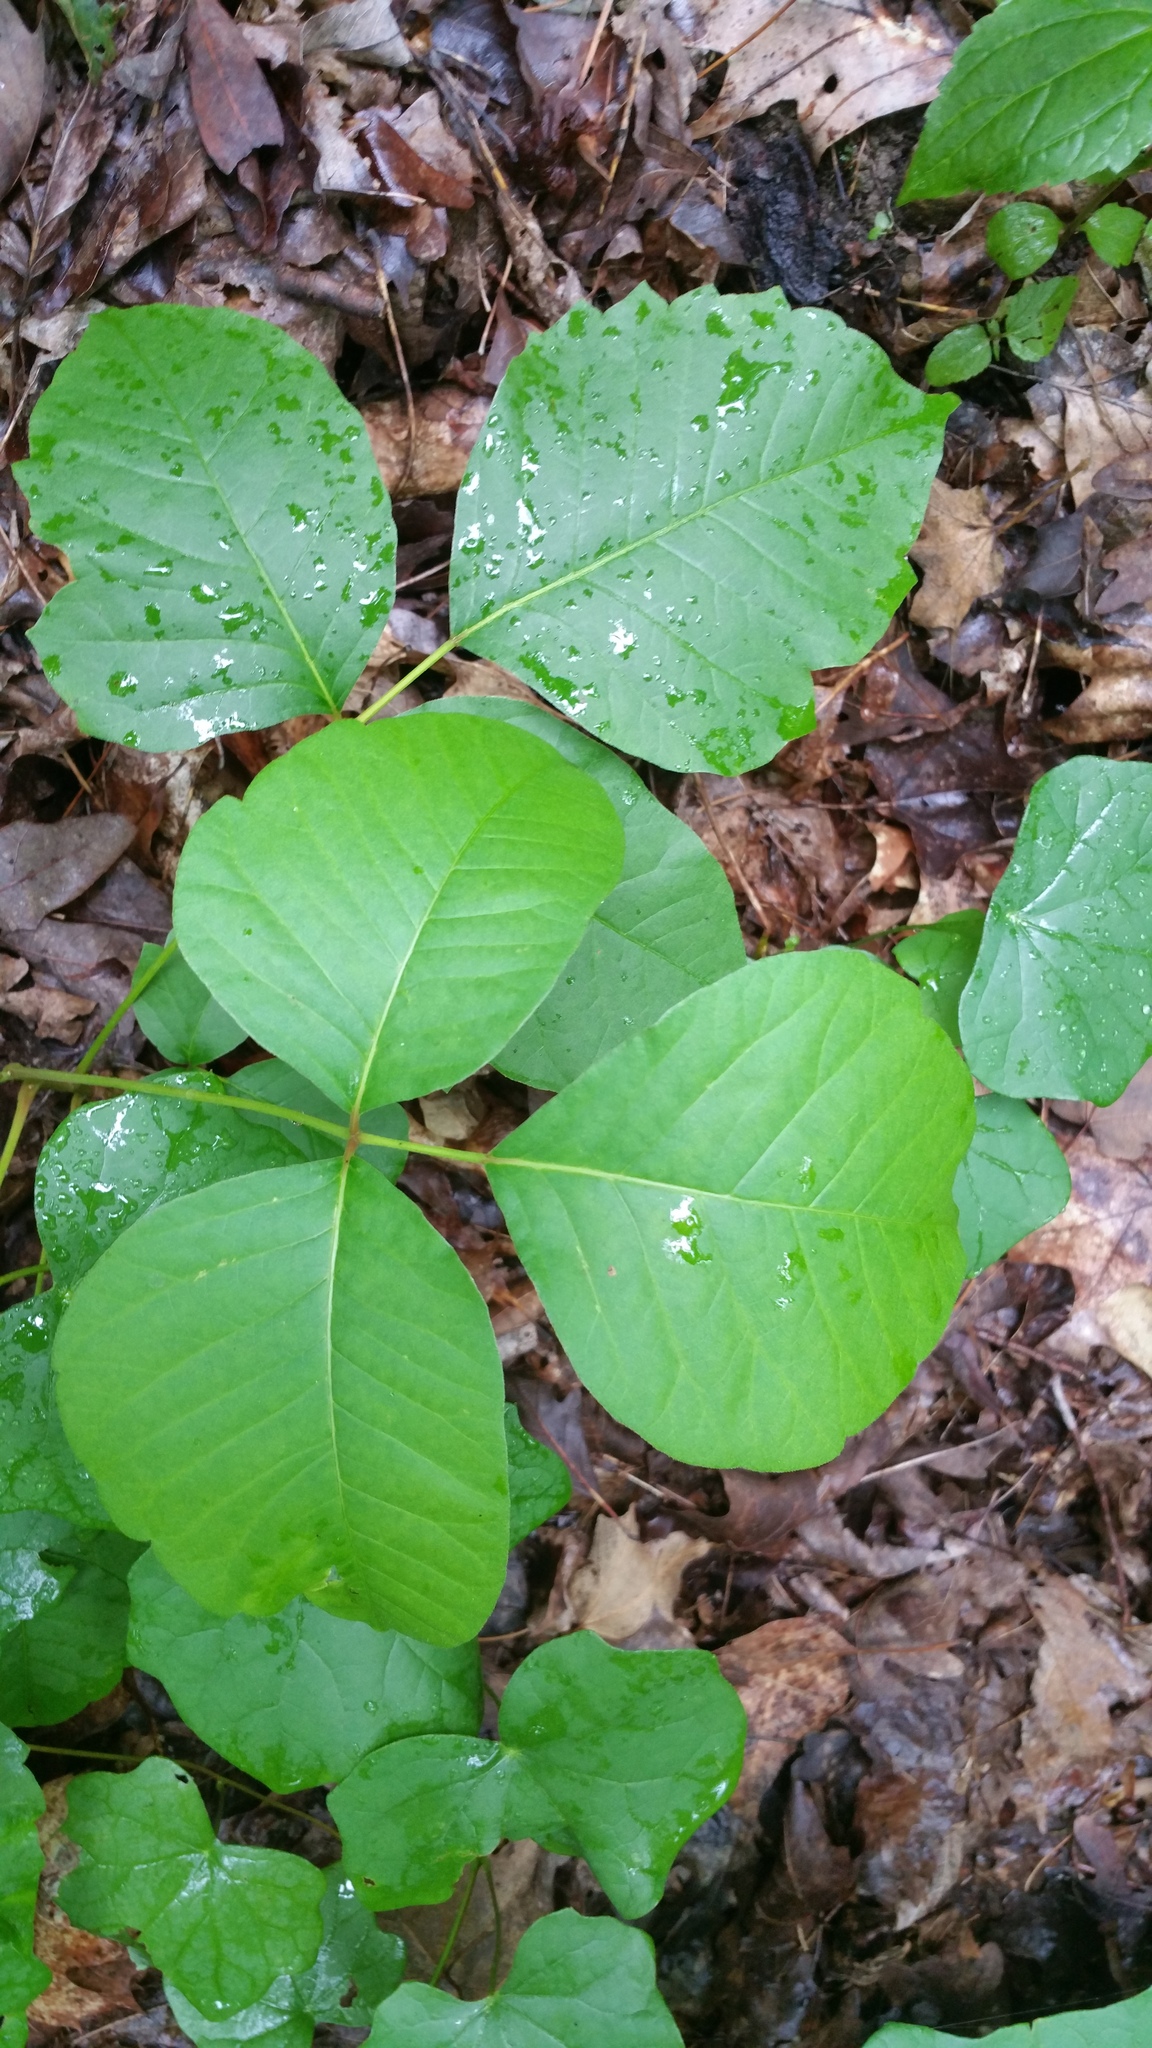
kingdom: Plantae
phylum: Tracheophyta
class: Magnoliopsida
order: Sapindales
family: Anacardiaceae
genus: Toxicodendron
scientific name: Toxicodendron radicans
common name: Poison ivy
